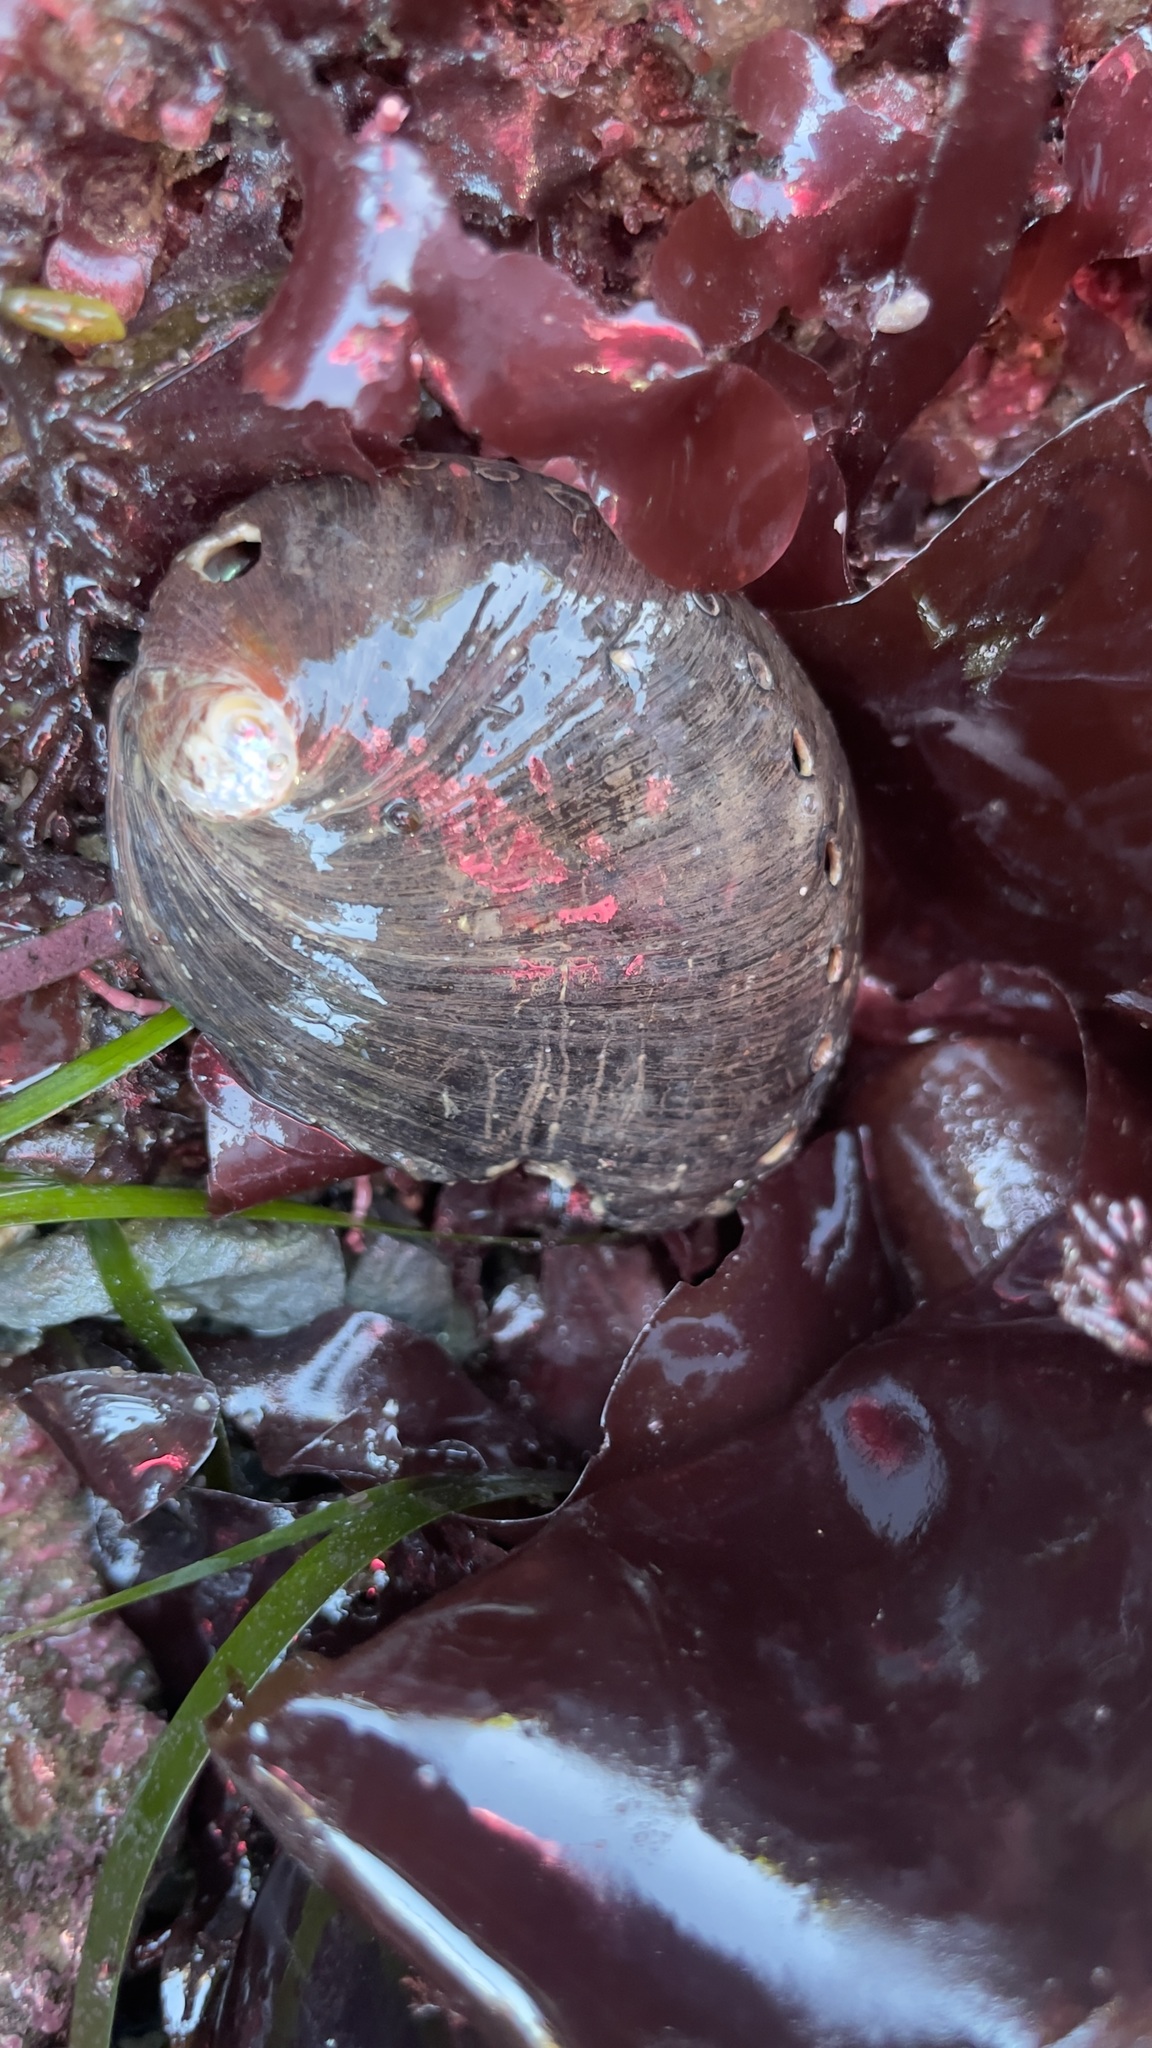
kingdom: Animalia
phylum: Mollusca
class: Gastropoda
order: Lepetellida
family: Haliotidae
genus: Haliotis
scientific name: Haliotis cracherodii
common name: Black abalone
